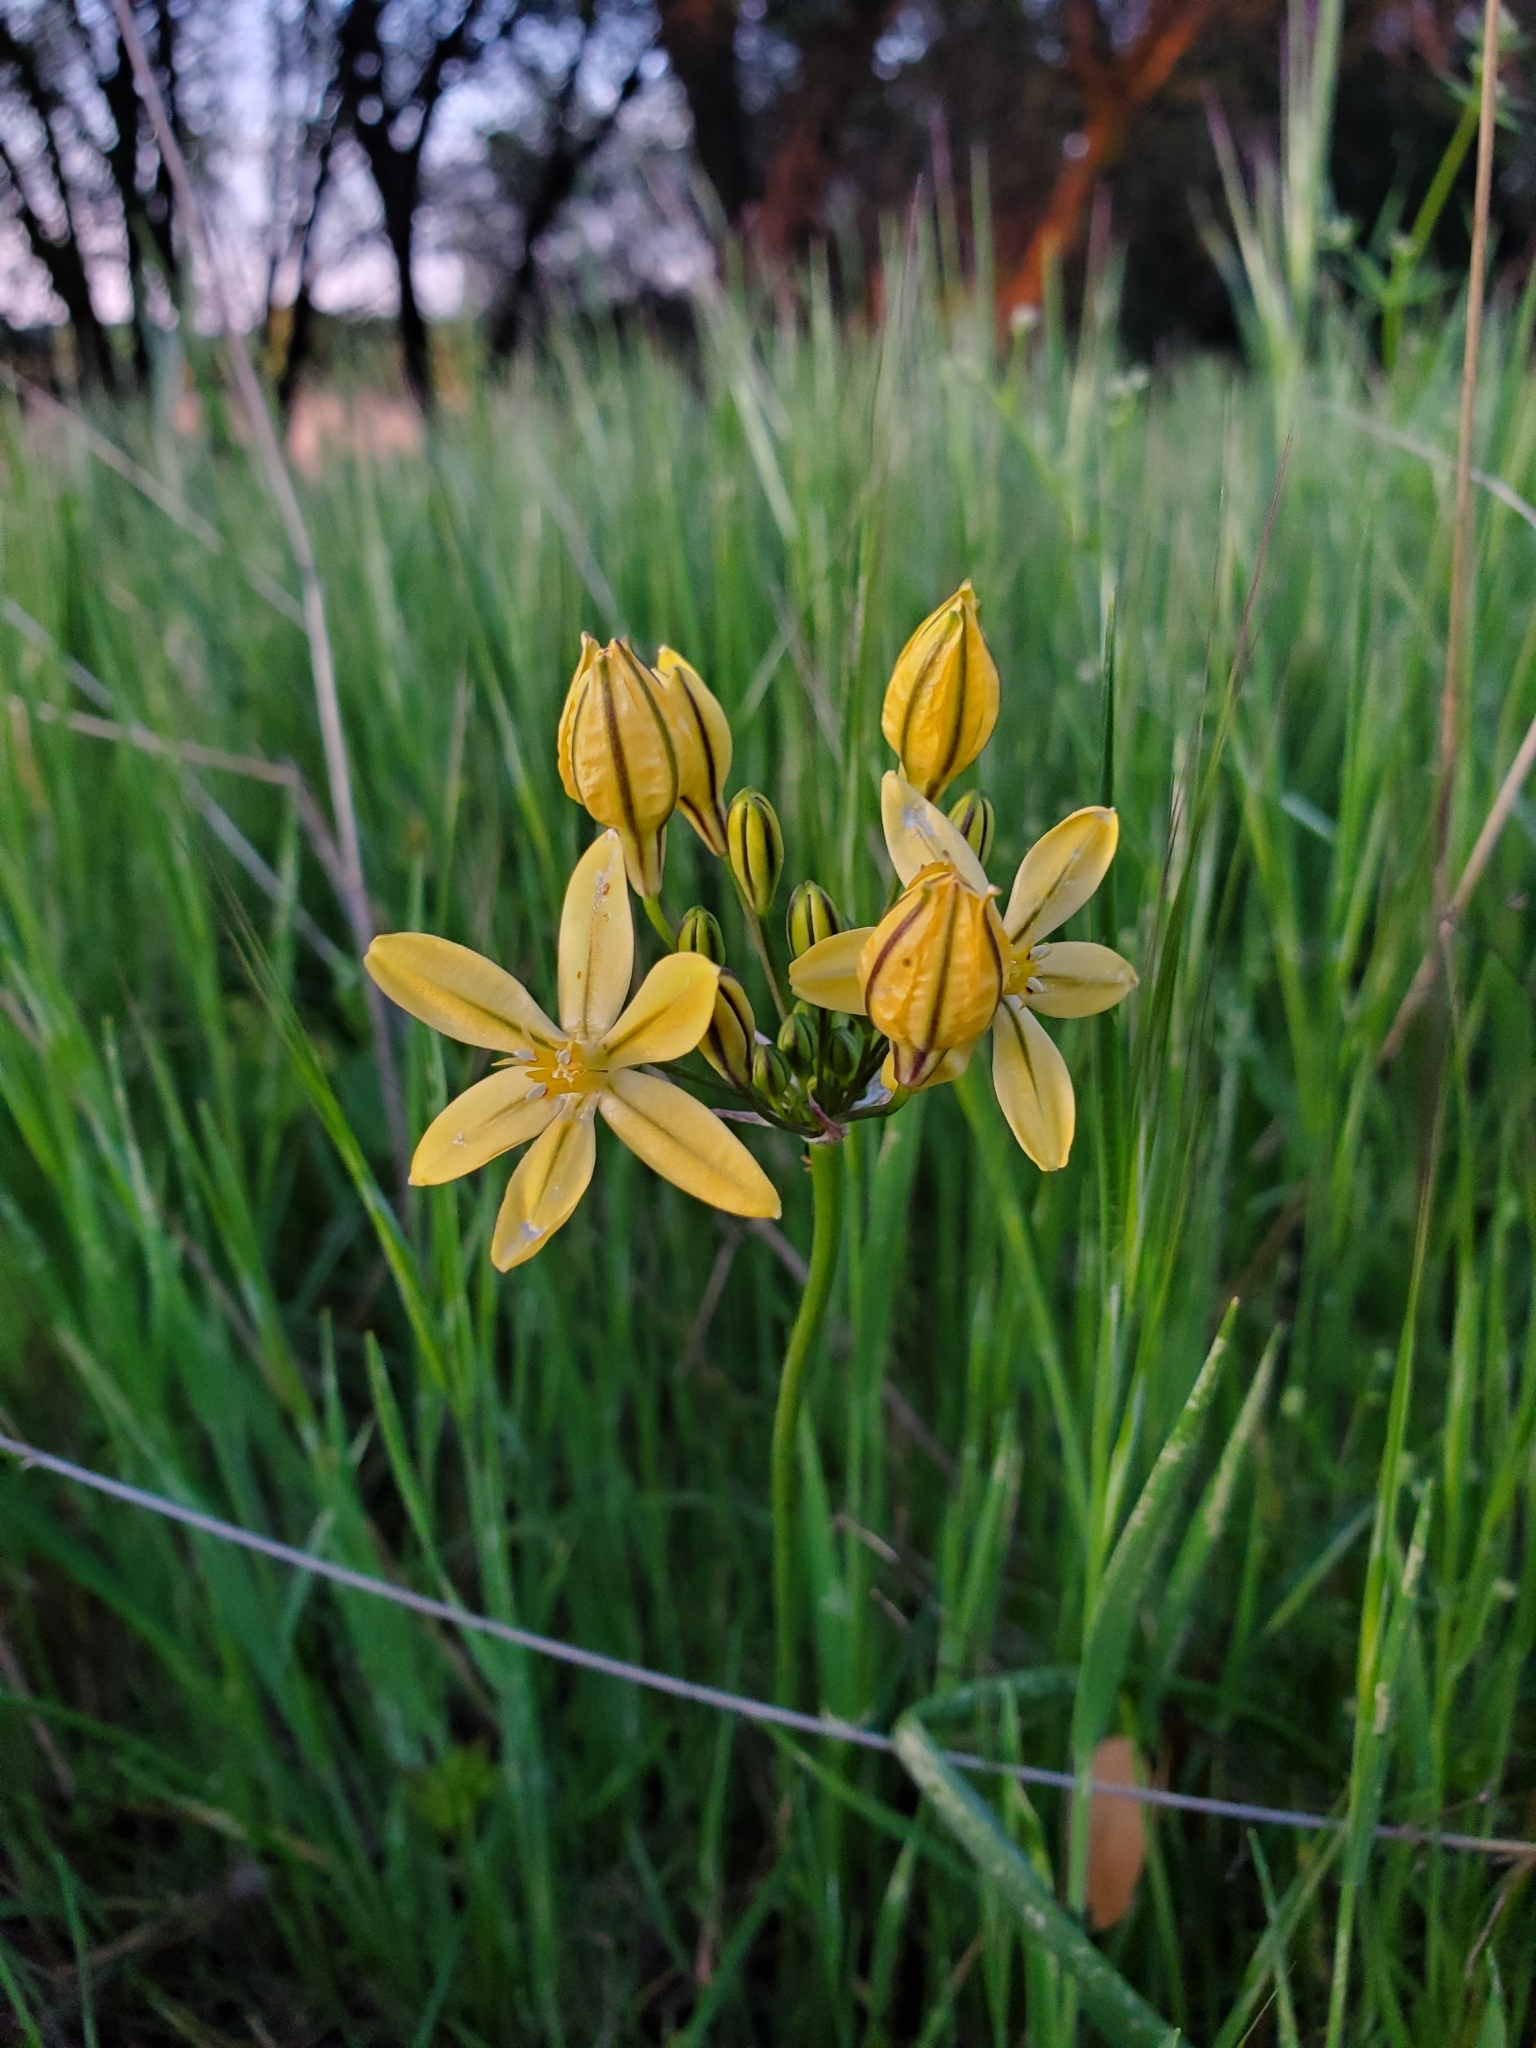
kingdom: Plantae
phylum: Tracheophyta
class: Liliopsida
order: Asparagales
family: Asparagaceae
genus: Triteleia
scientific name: Triteleia ixioides
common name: Yellow-brodiaea
